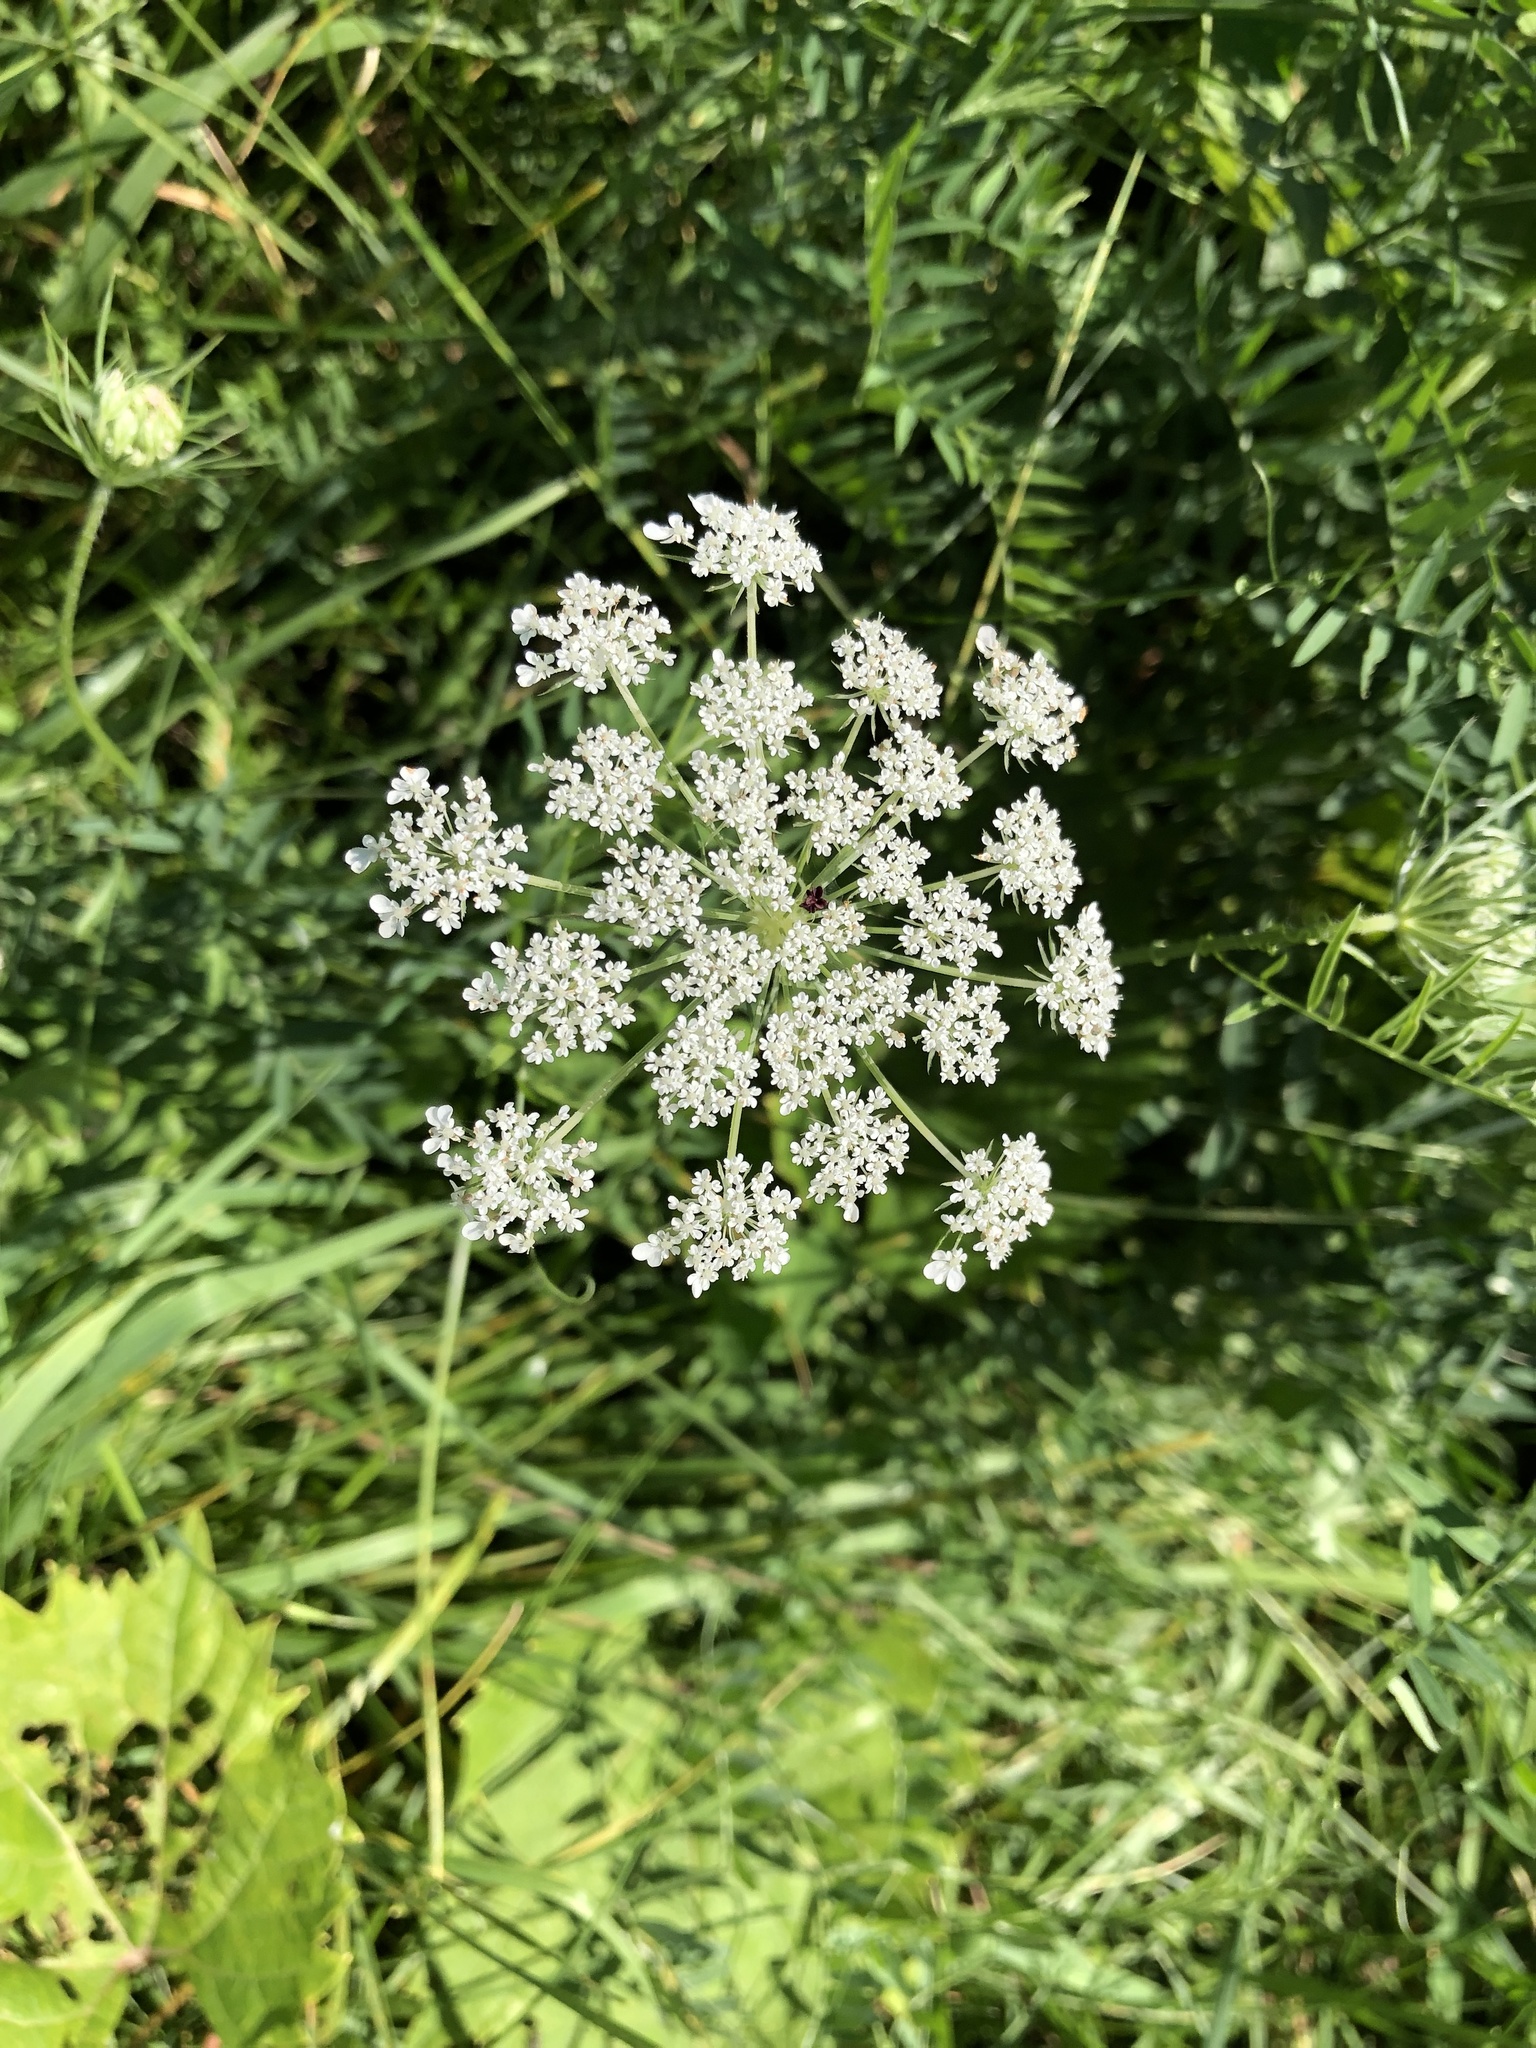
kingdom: Plantae
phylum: Tracheophyta
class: Magnoliopsida
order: Apiales
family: Apiaceae
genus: Daucus
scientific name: Daucus carota
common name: Wild carrot
